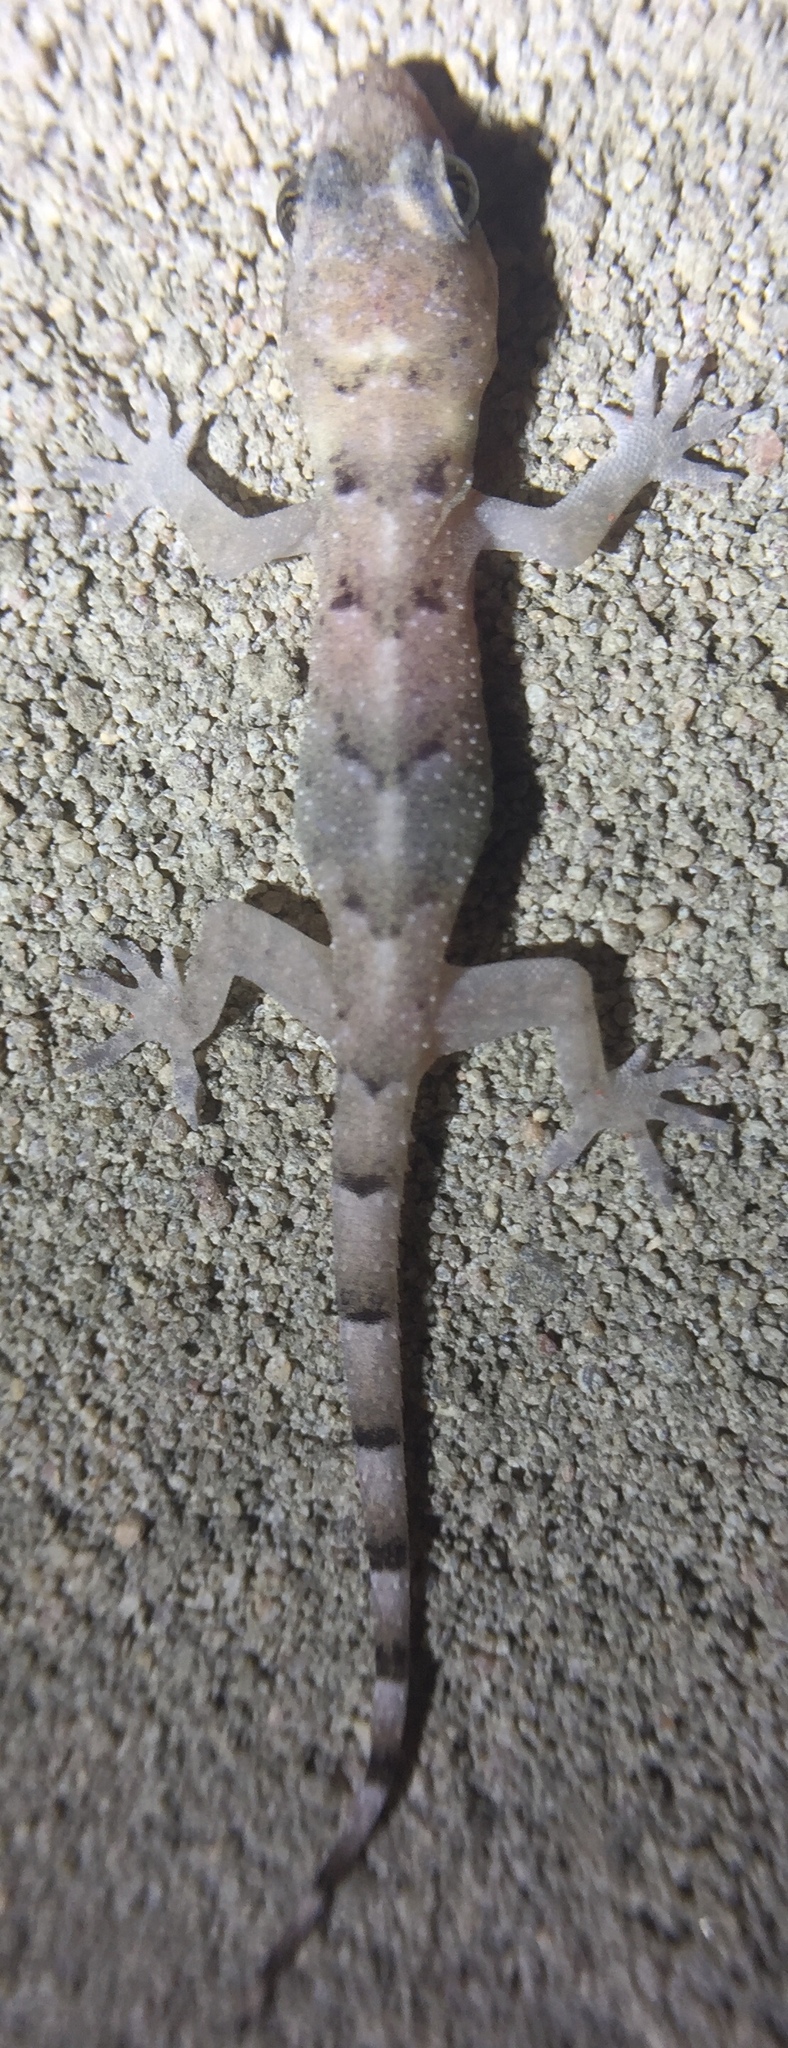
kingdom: Animalia
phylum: Chordata
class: Squamata
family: Gekkonidae
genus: Hemidactylus
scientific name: Hemidactylus mabouia
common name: House gecko
